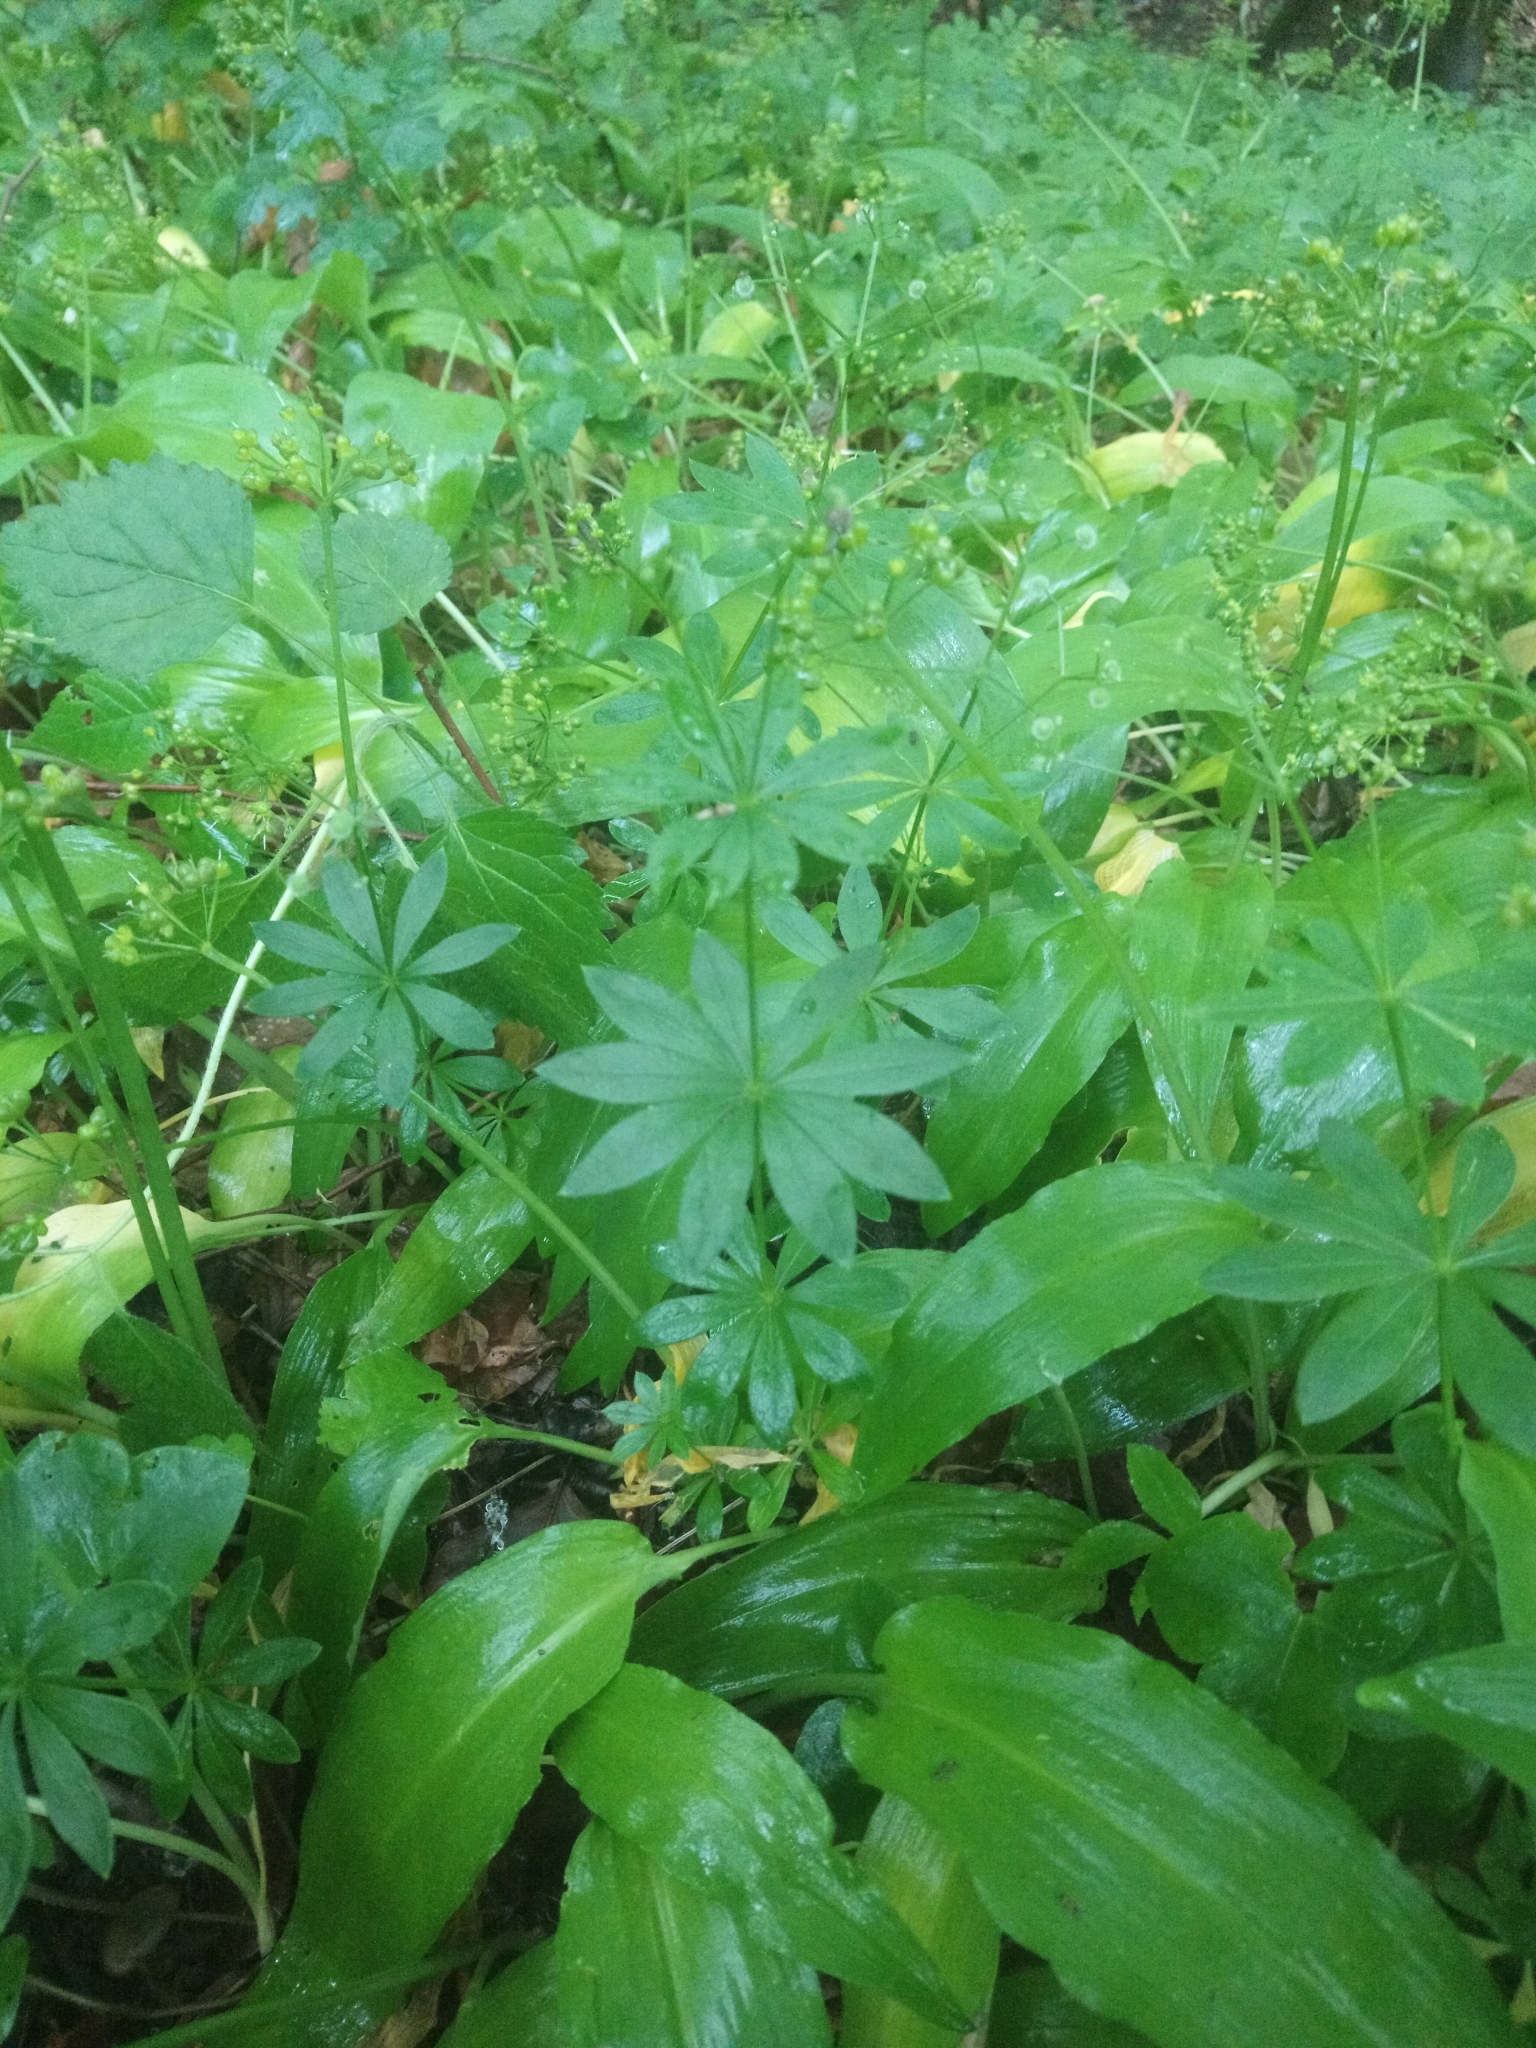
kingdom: Plantae
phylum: Tracheophyta
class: Magnoliopsida
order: Gentianales
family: Rubiaceae
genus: Galium
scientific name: Galium odoratum
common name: Sweet woodruff
